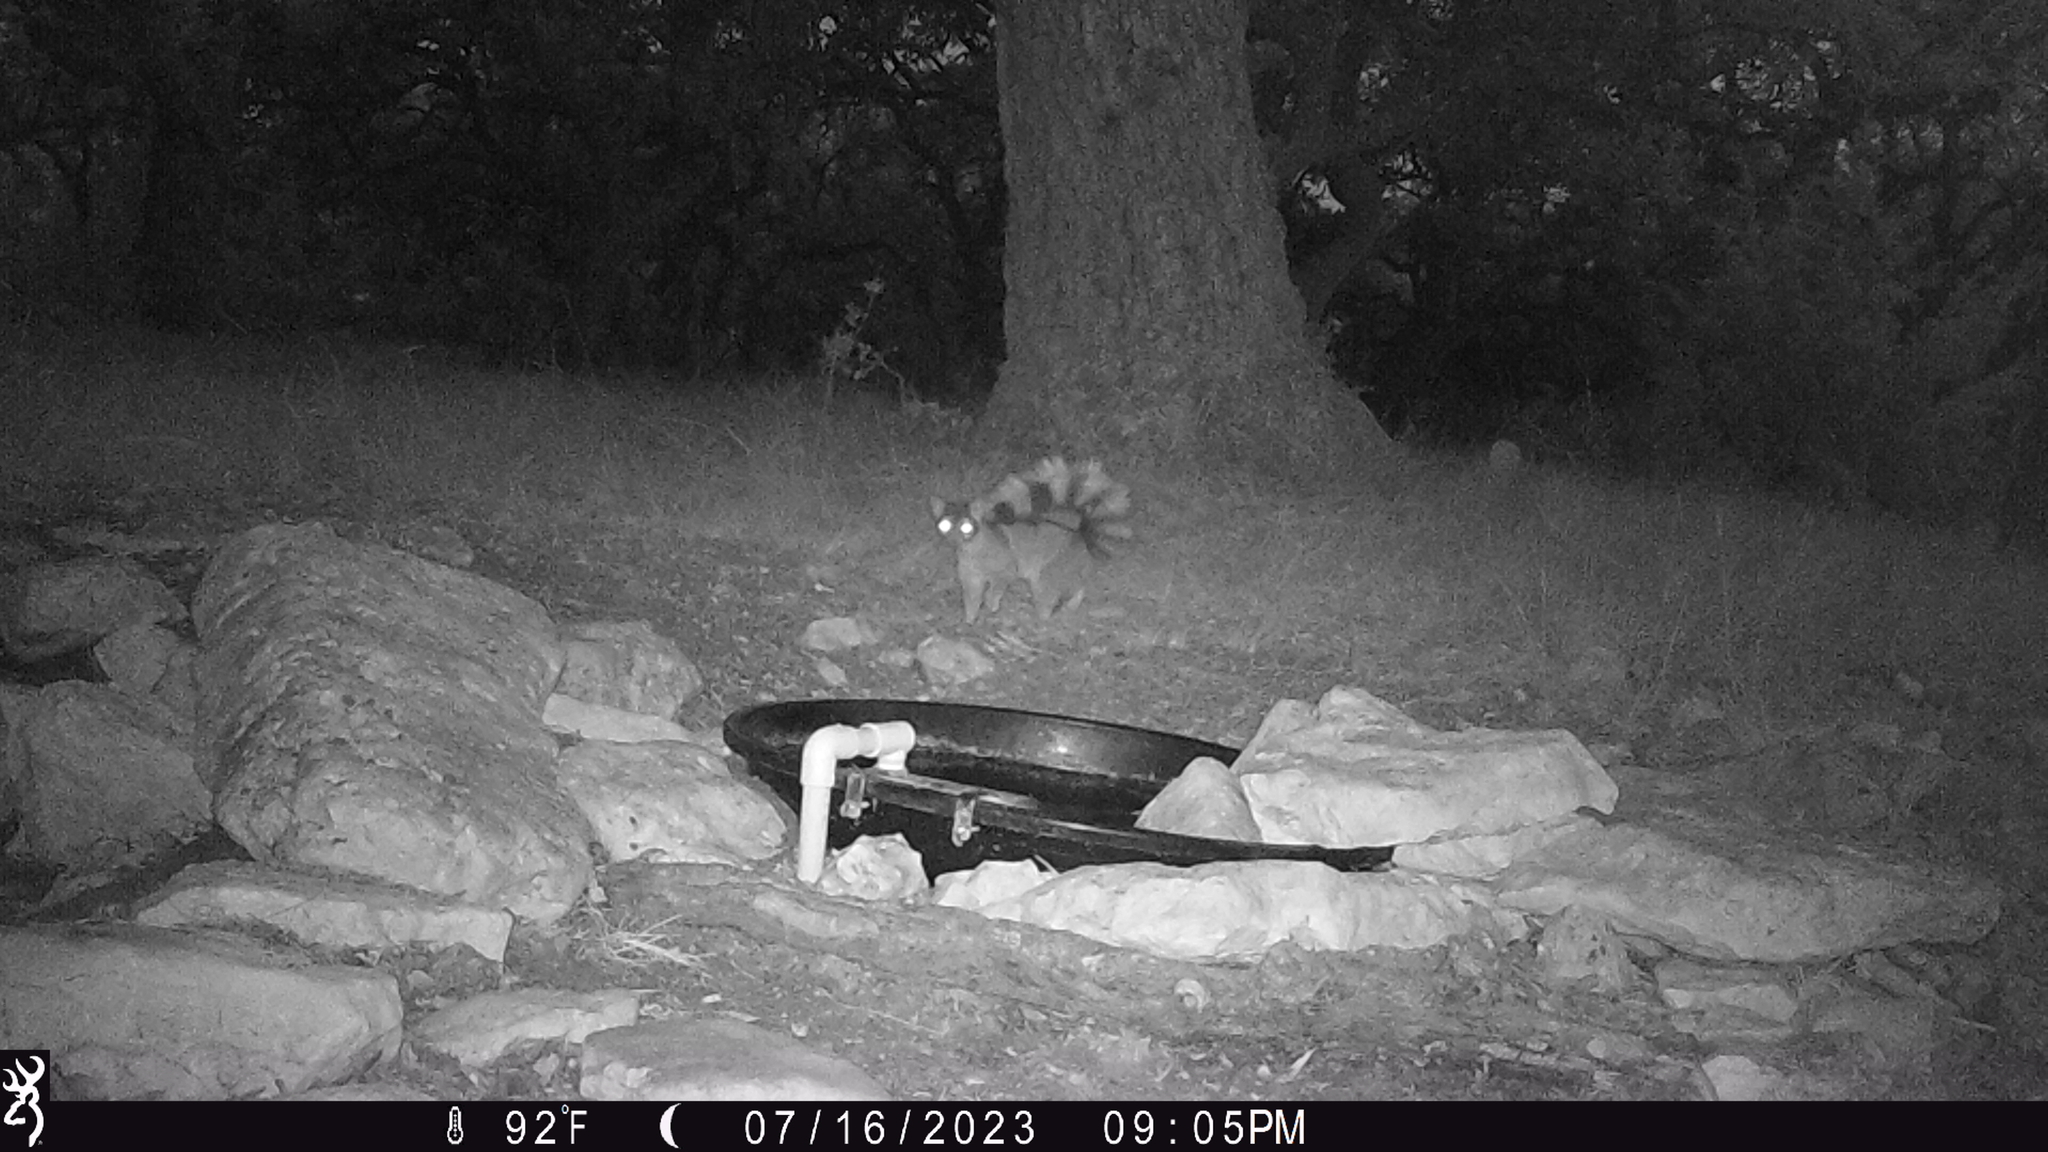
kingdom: Animalia
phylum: Chordata
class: Mammalia
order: Carnivora
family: Procyonidae
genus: Bassariscus
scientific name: Bassariscus astutus
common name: Ringtail
